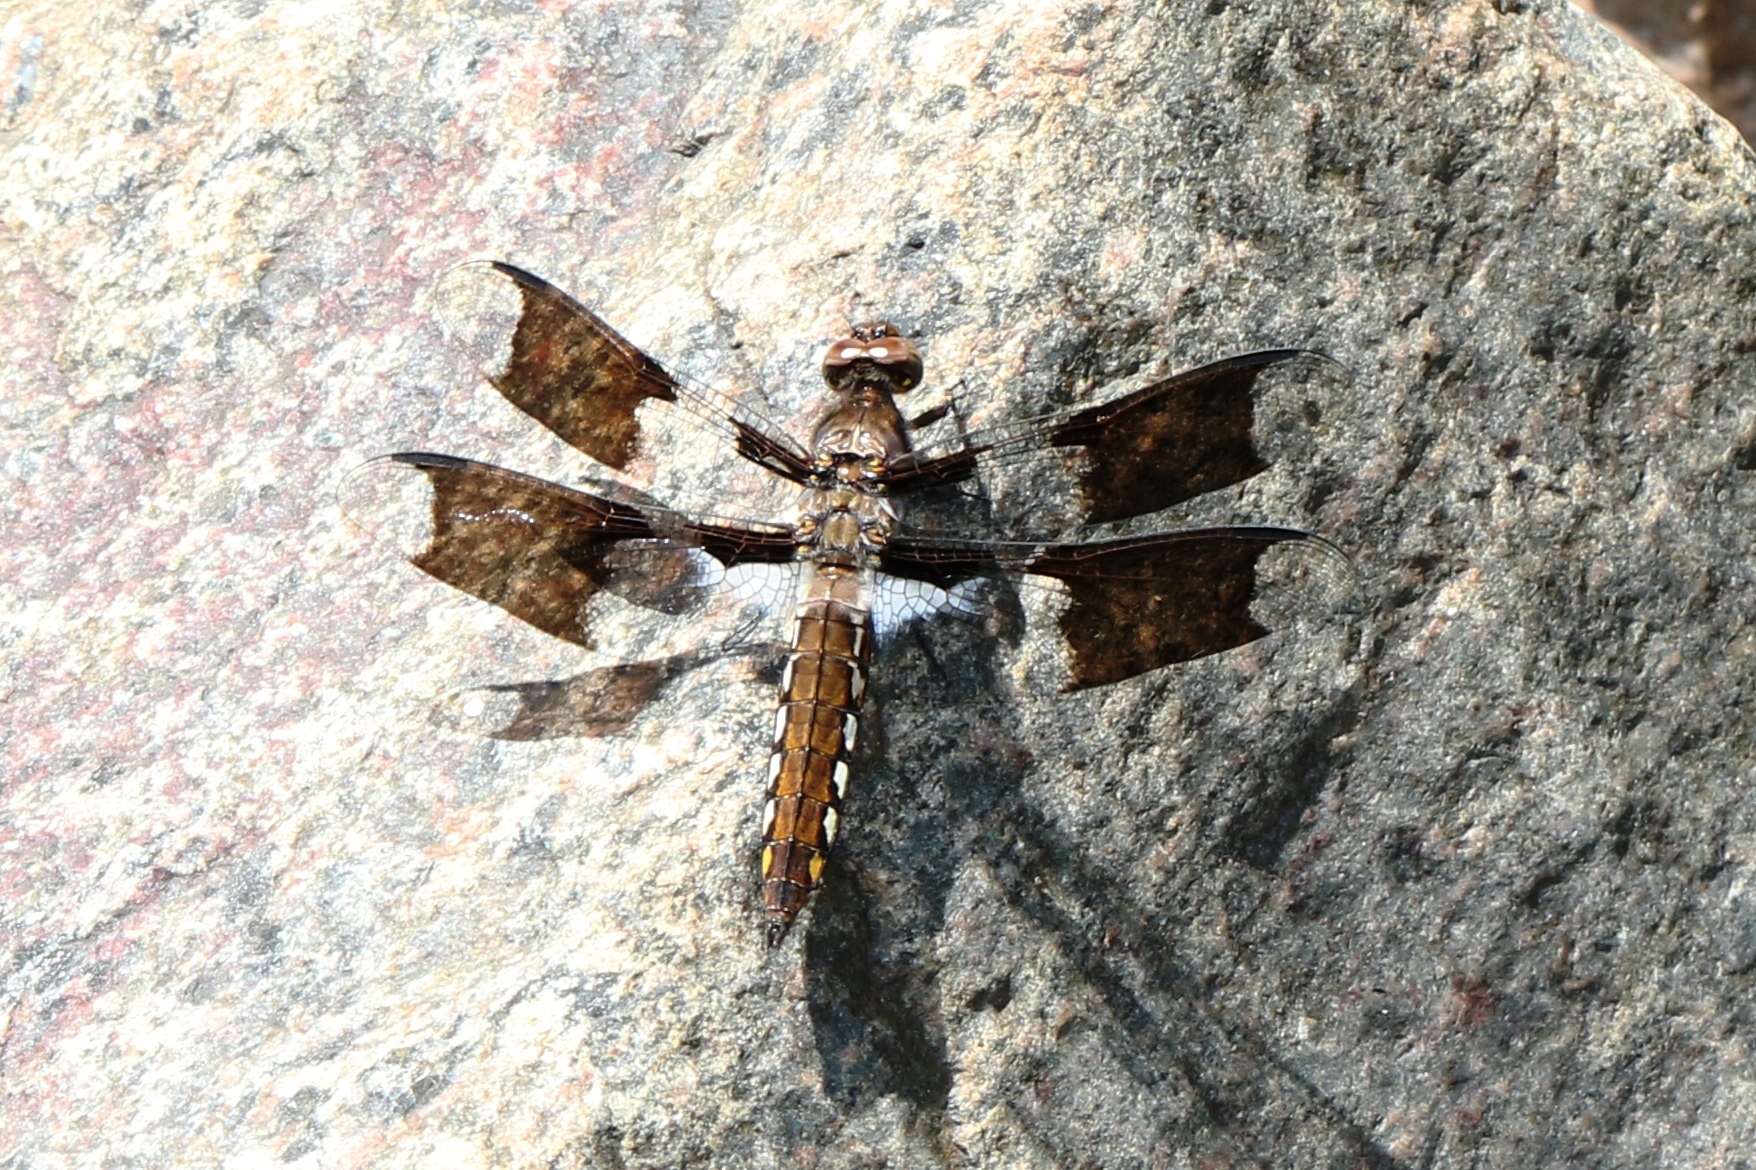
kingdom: Animalia
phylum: Arthropoda
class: Insecta
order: Odonata
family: Libellulidae
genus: Plathemis
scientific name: Plathemis lydia
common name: Common whitetail
